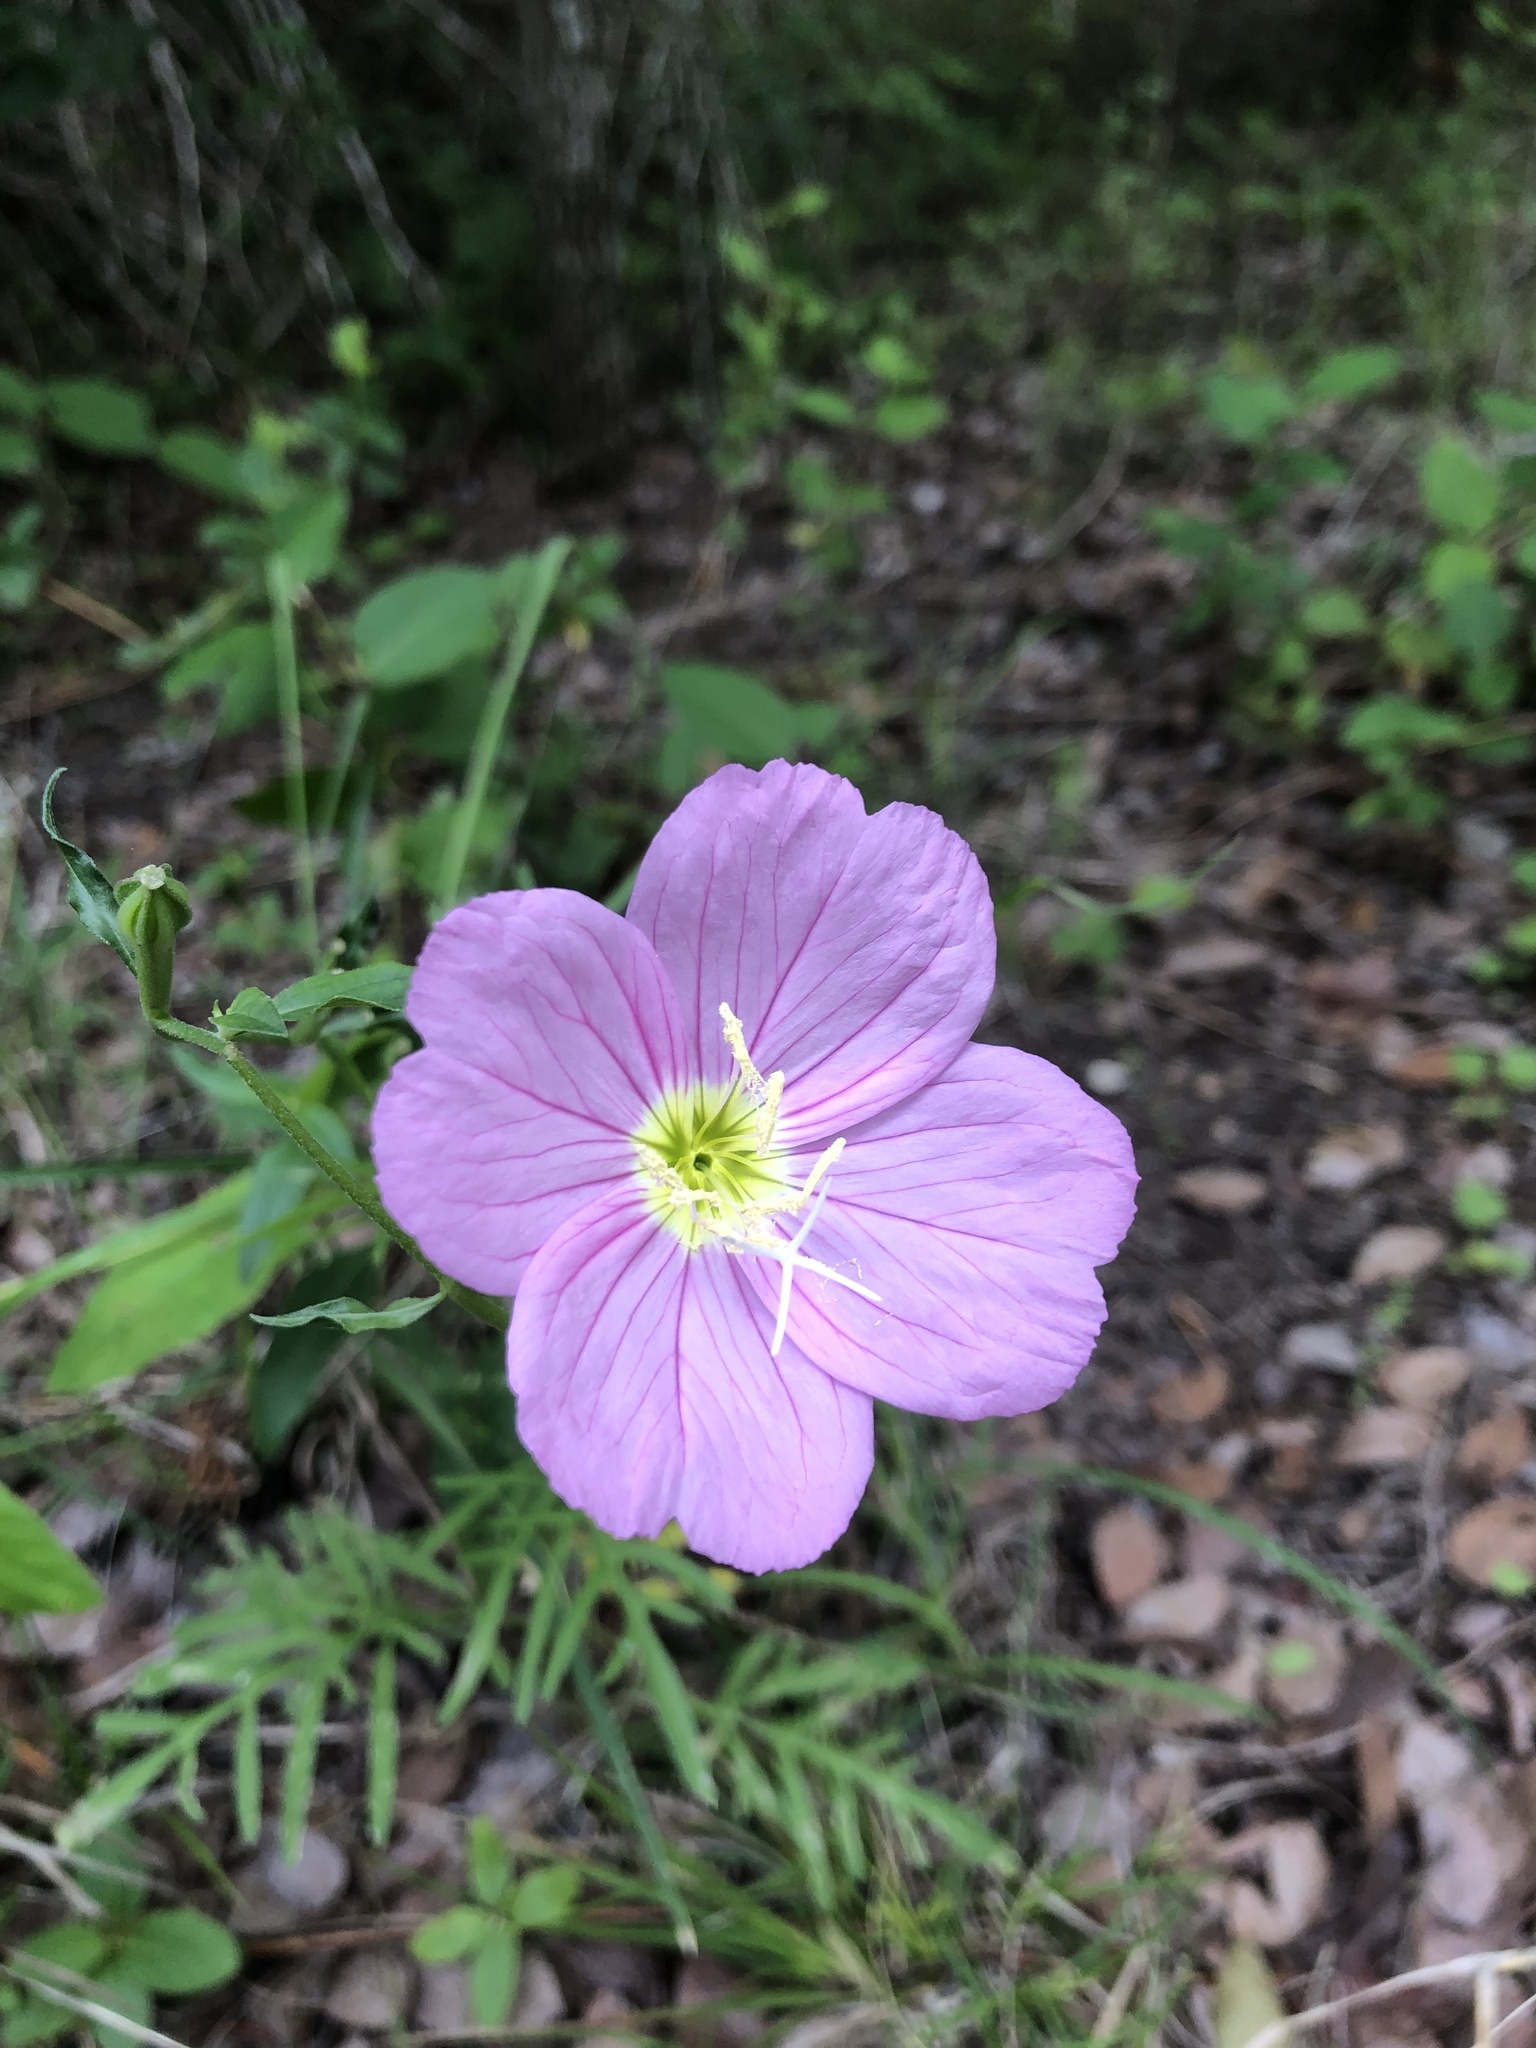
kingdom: Plantae
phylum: Tracheophyta
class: Magnoliopsida
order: Myrtales
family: Onagraceae
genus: Oenothera
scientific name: Oenothera speciosa
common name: White evening-primrose
